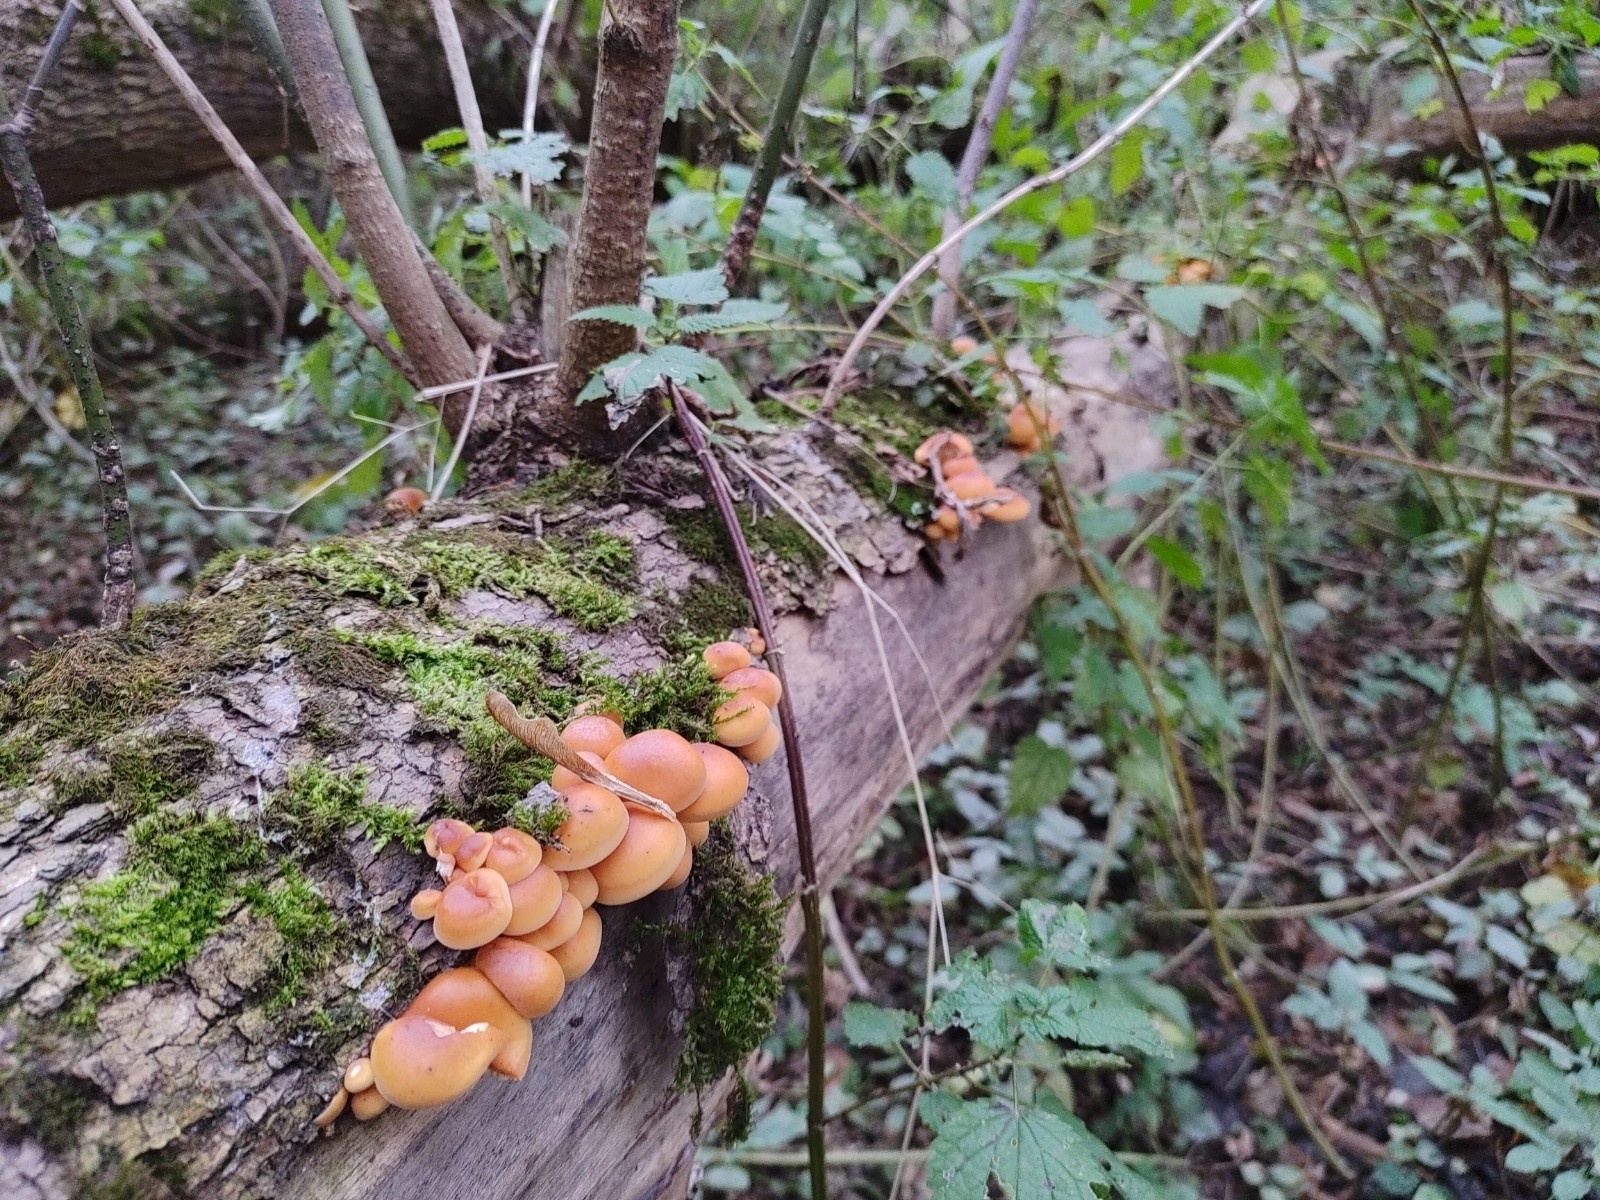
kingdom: Fungi
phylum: Basidiomycota
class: Agaricomycetes
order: Agaricales
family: Physalacriaceae
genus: Flammulina
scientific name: Flammulina
